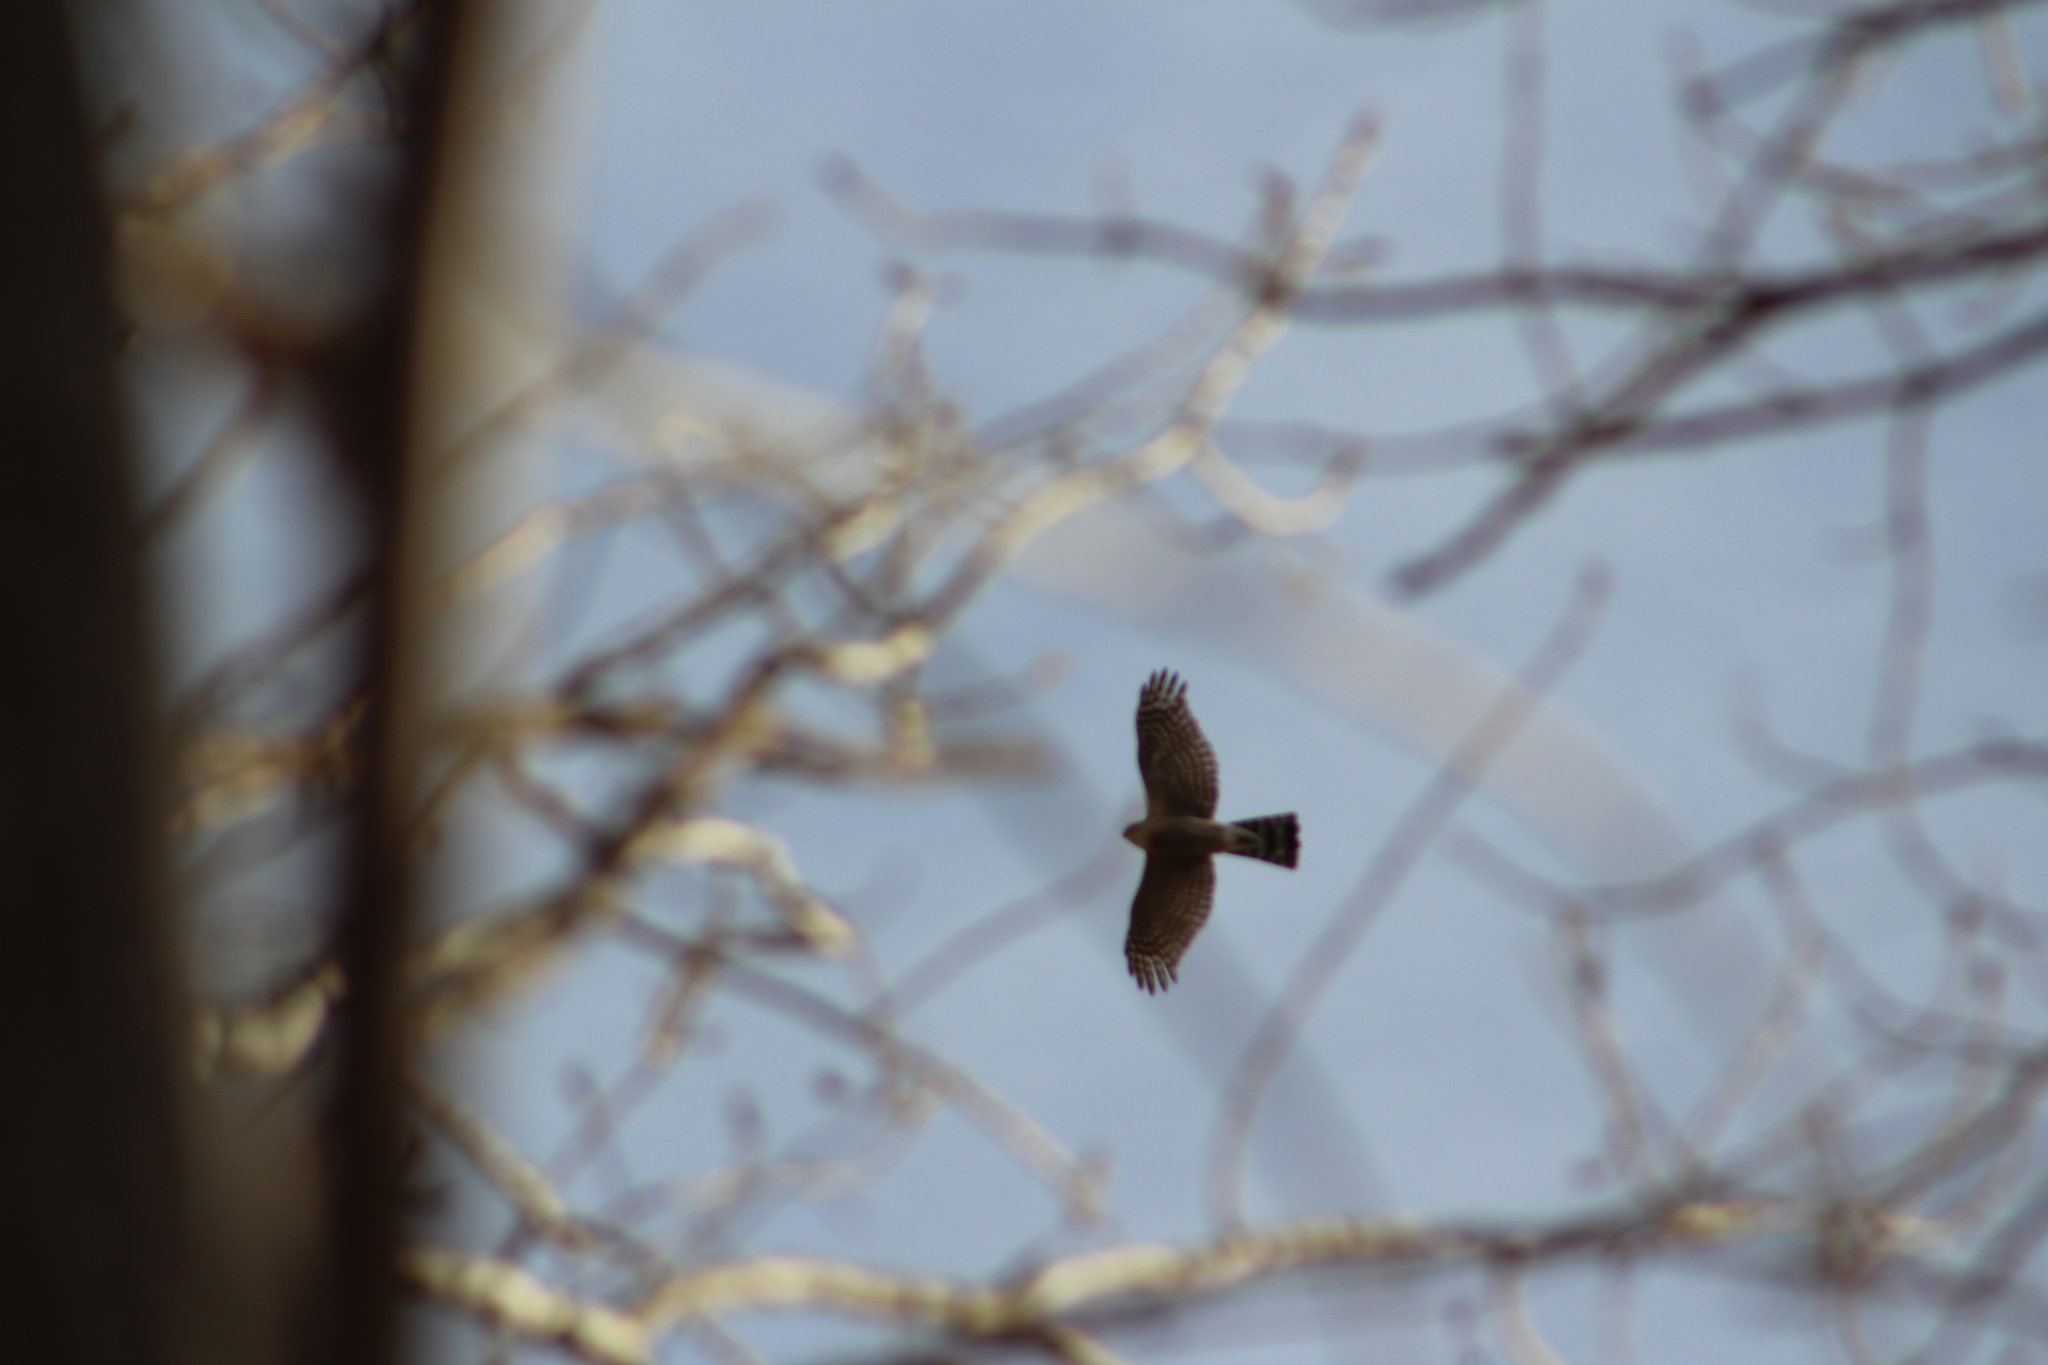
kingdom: Animalia
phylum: Chordata
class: Aves
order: Accipitriformes
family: Accipitridae
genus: Accipiter
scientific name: Accipiter striatus
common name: Sharp-shinned hawk
